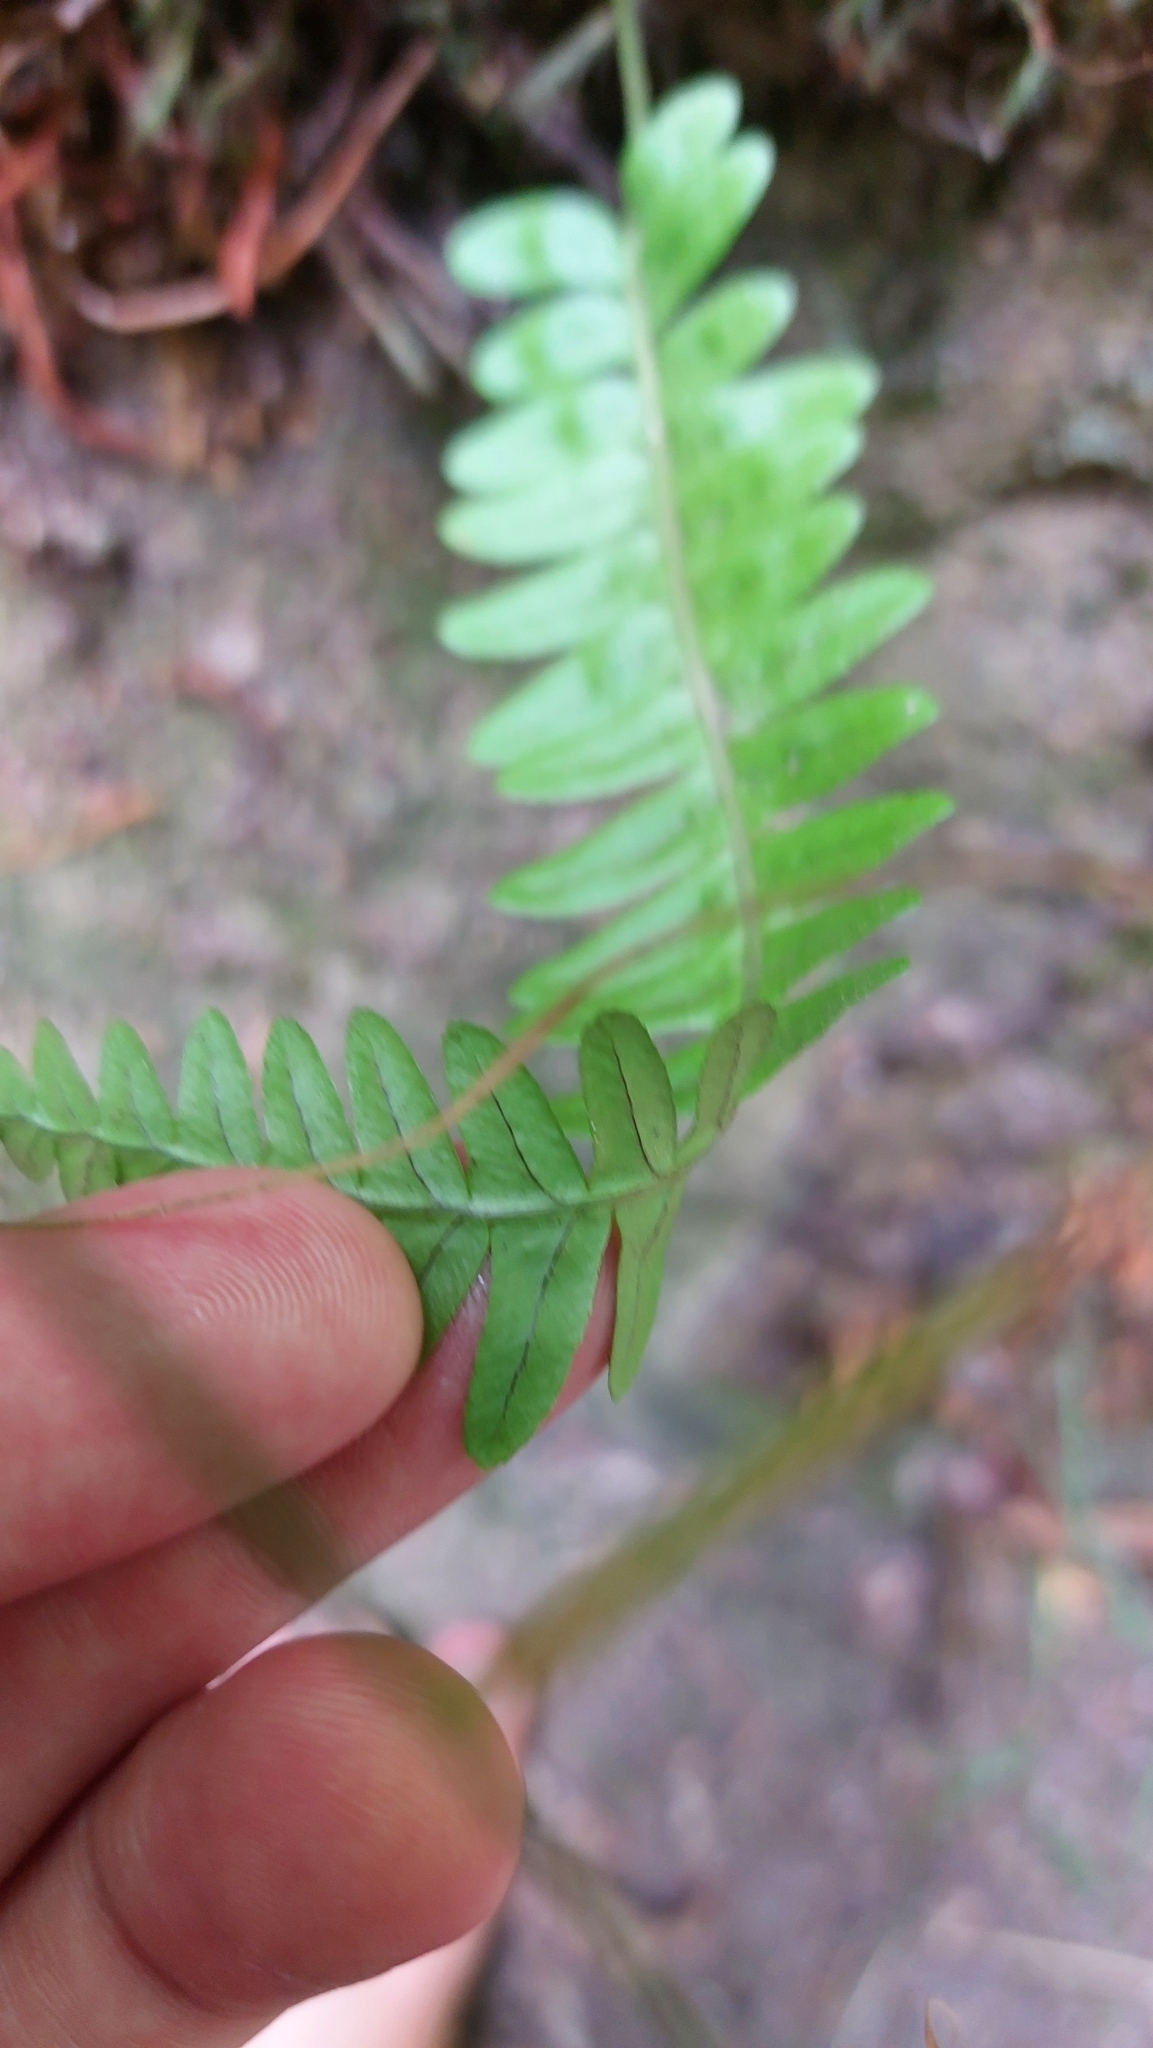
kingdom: Plantae
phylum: Tracheophyta
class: Polypodiopsida
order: Polypodiales
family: Polypodiaceae
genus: Polypodium
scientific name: Polypodium vulgare
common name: Common polypody
